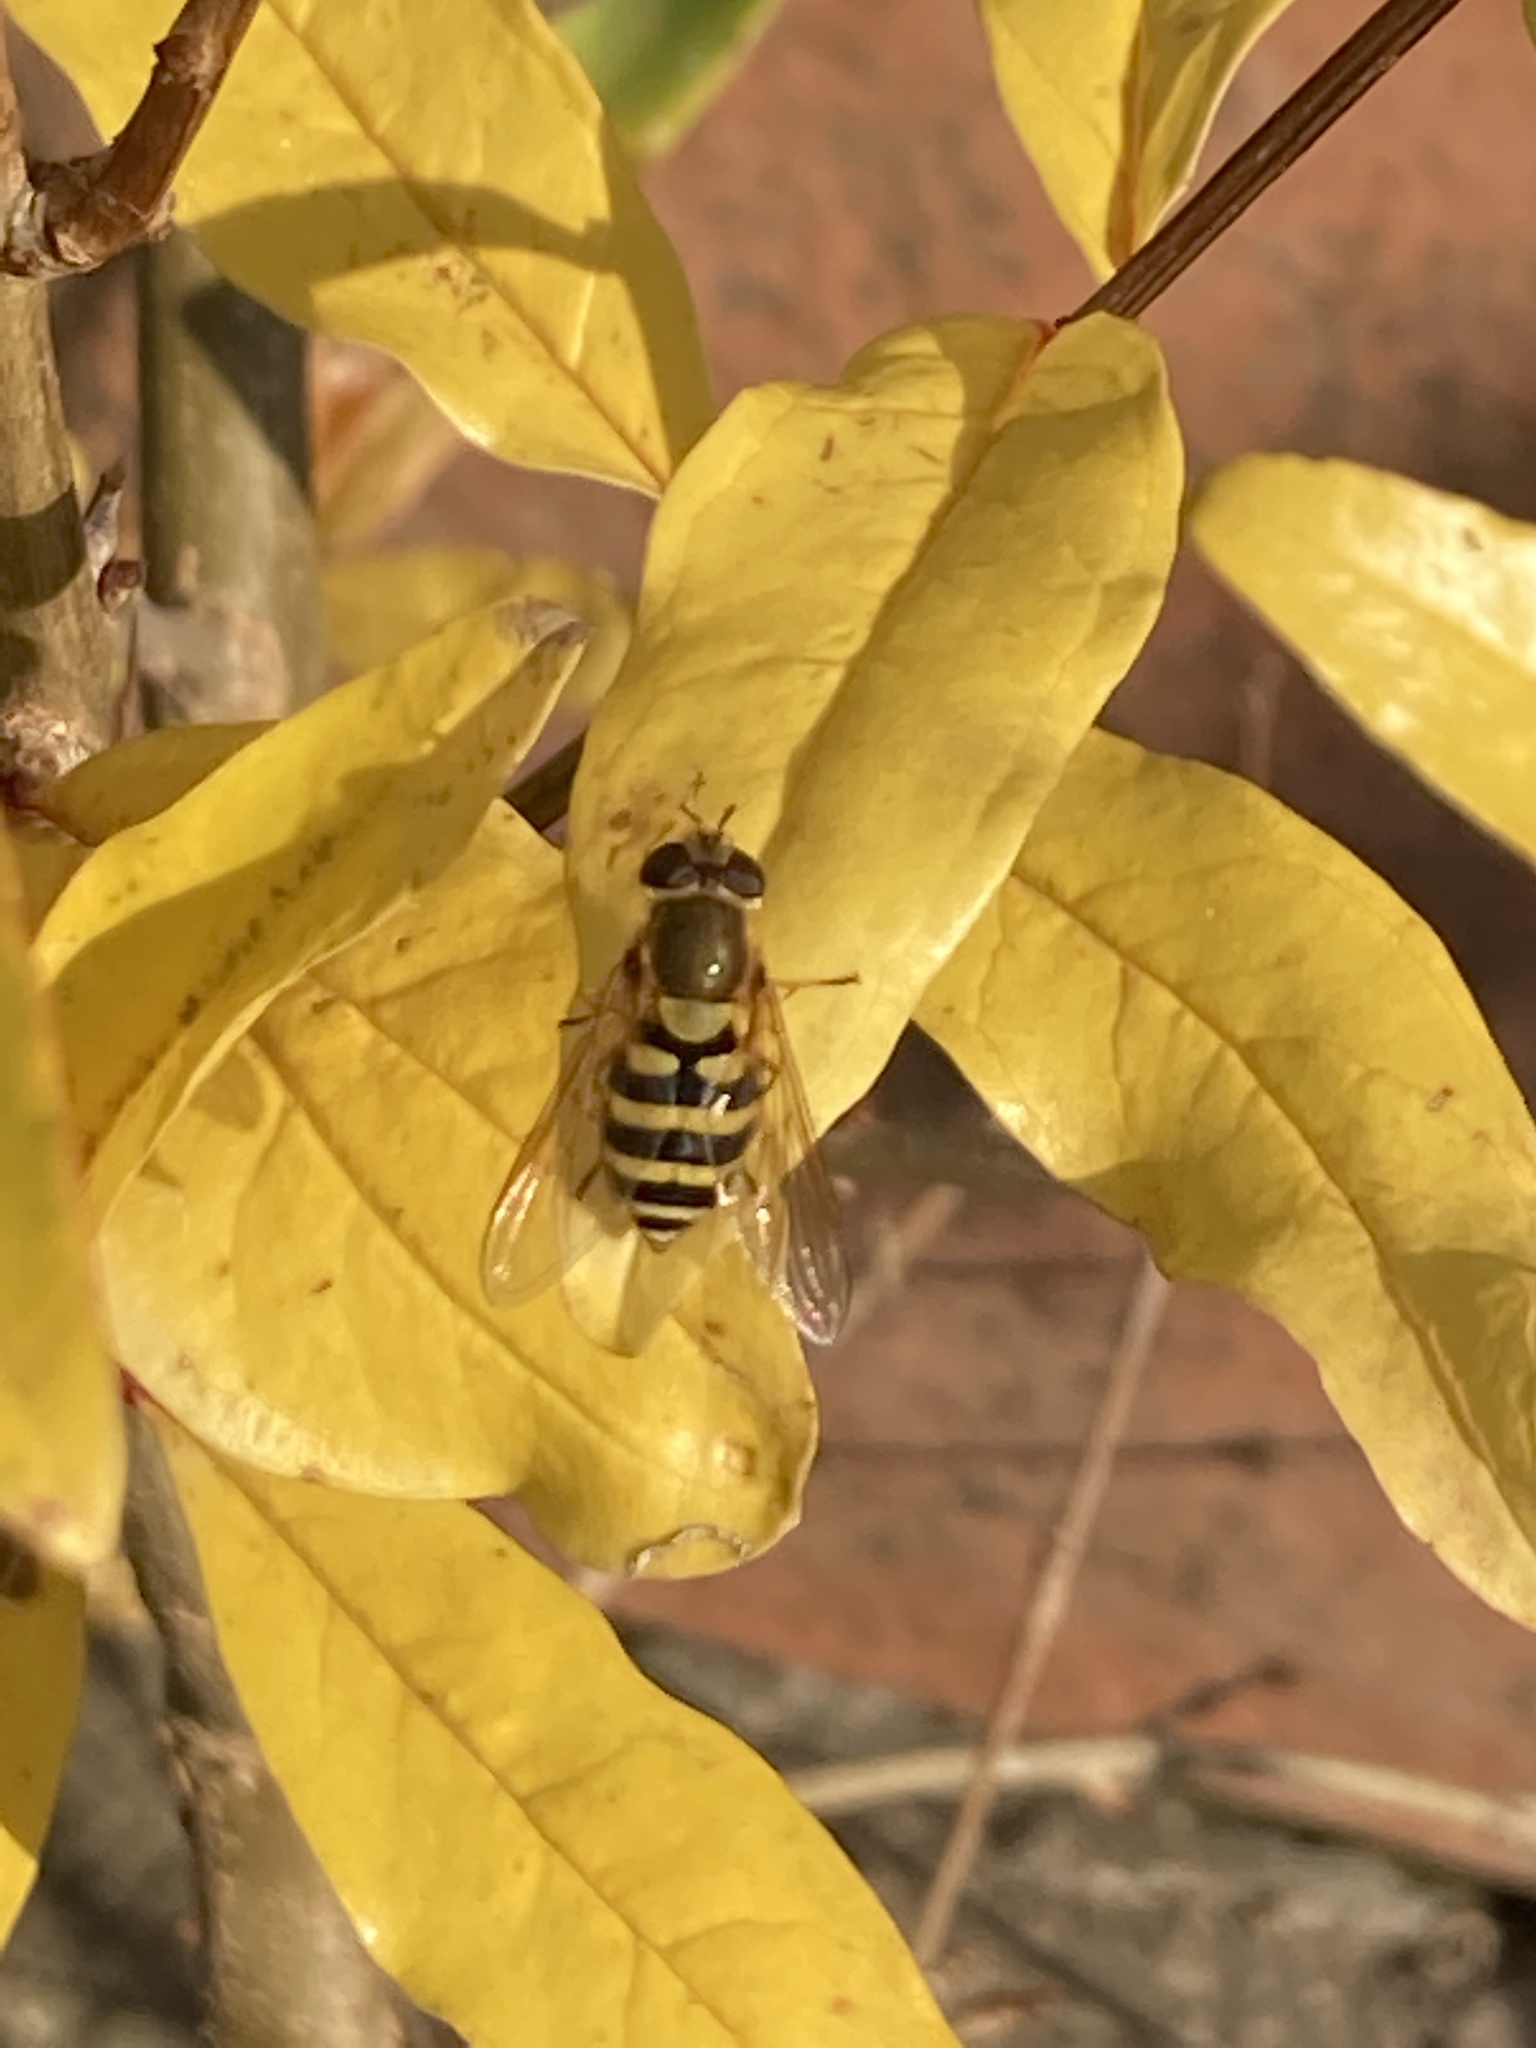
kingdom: Animalia
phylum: Arthropoda
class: Insecta
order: Diptera
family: Syrphidae
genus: Syrphus
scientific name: Syrphus
